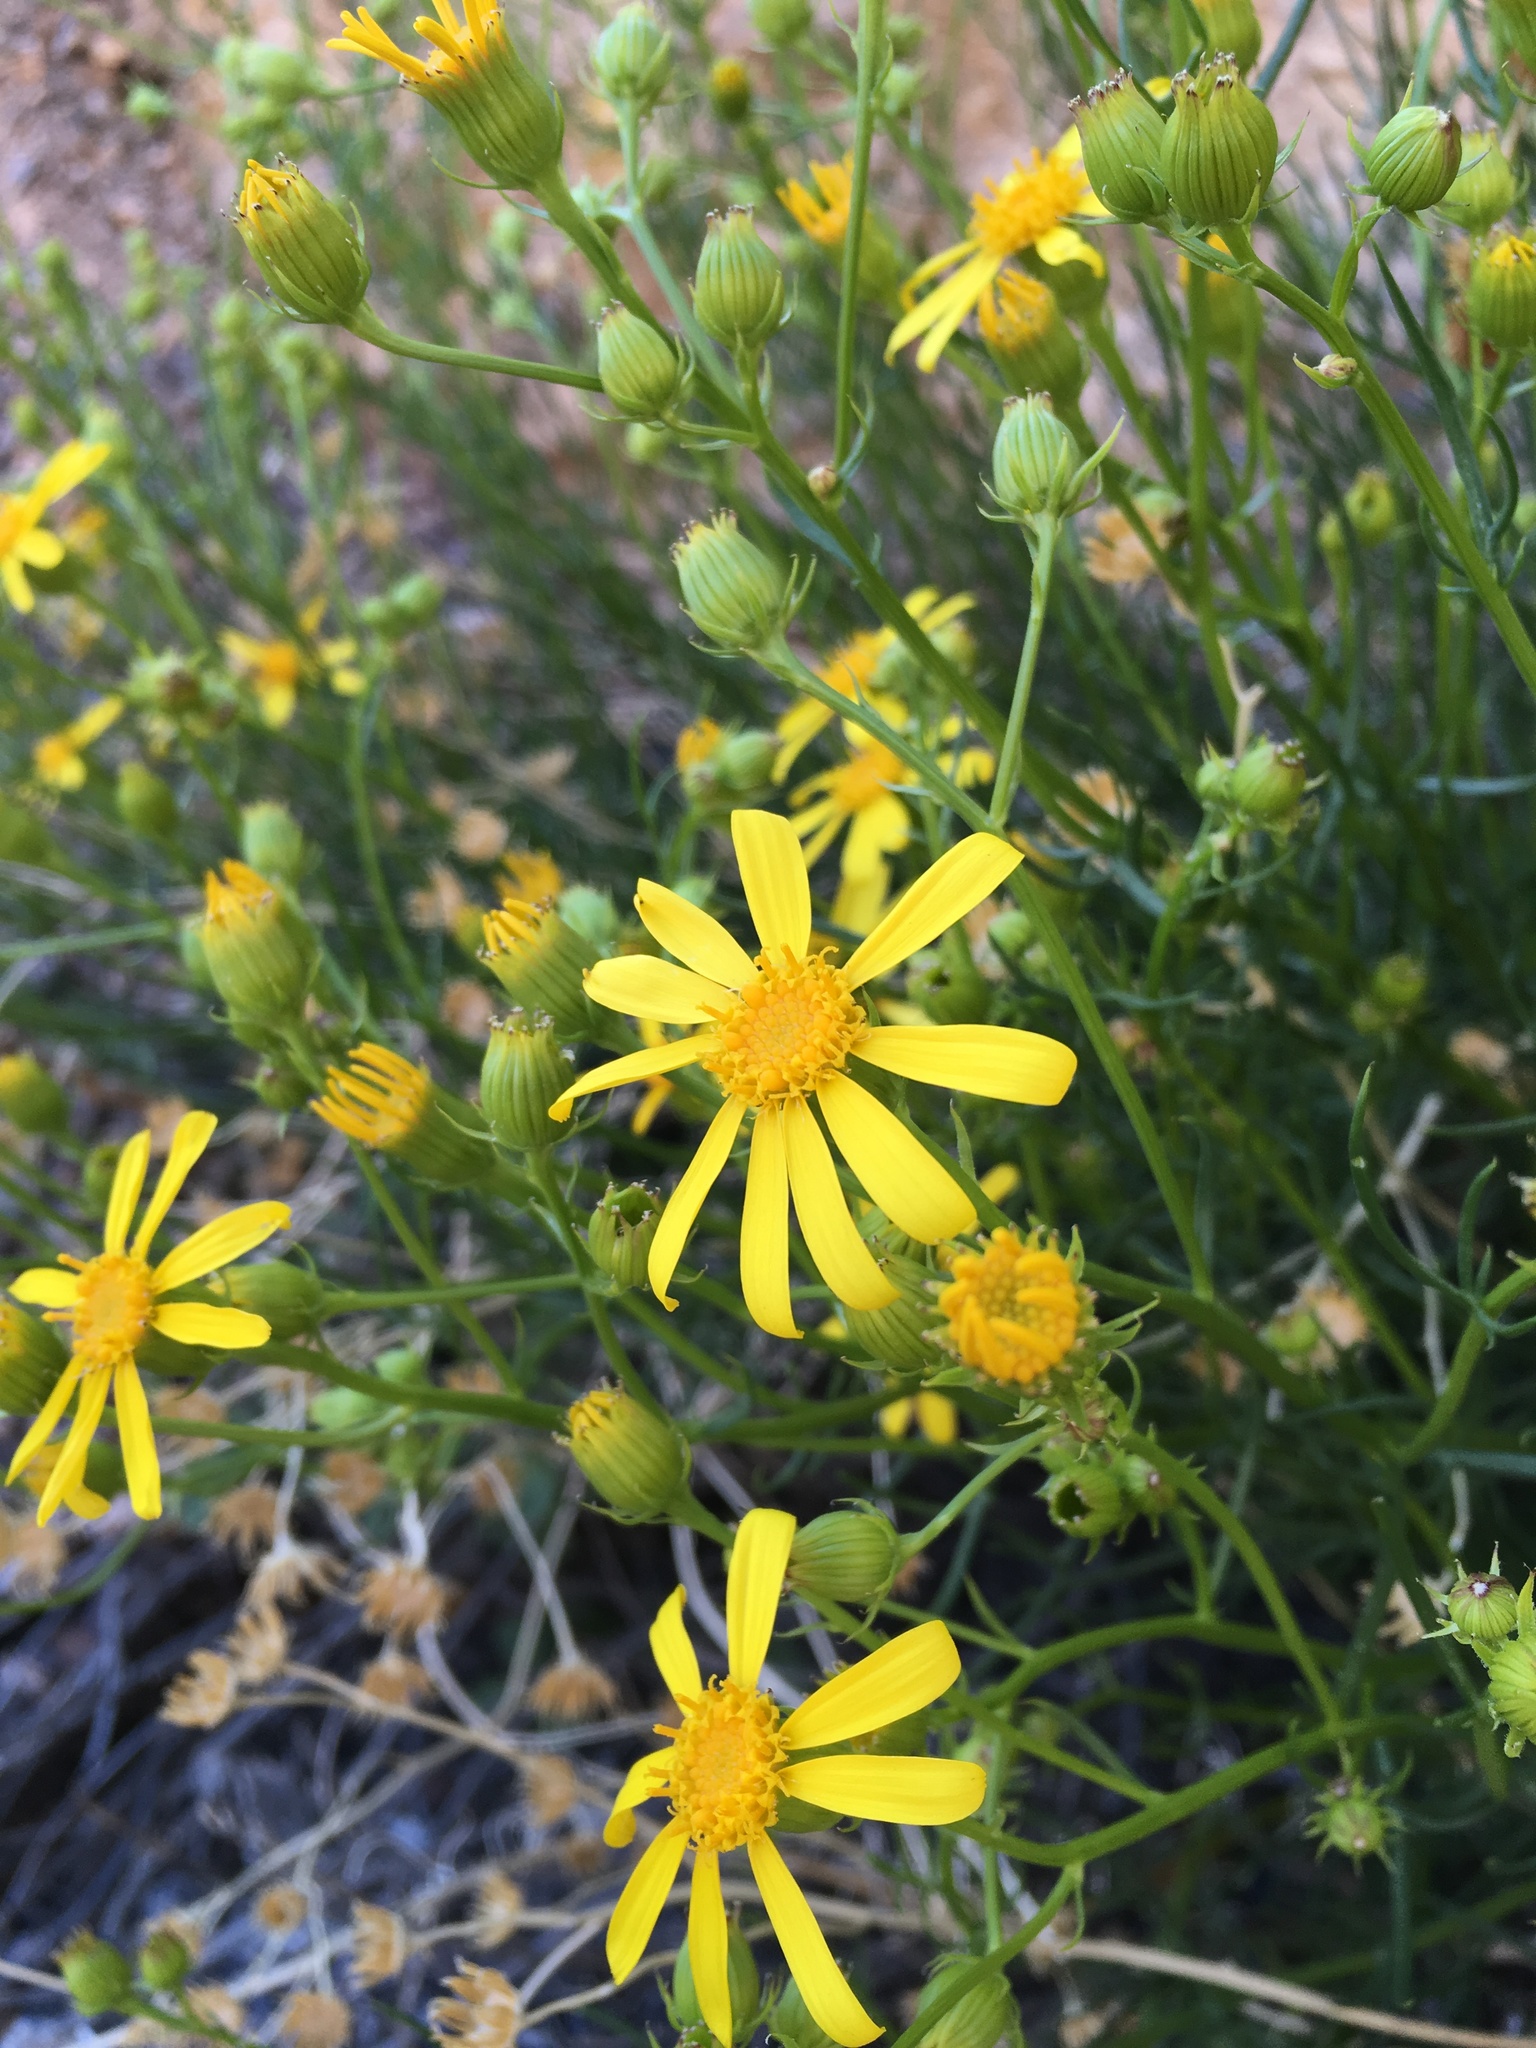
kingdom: Plantae
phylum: Tracheophyta
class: Magnoliopsida
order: Asterales
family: Asteraceae
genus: Senecio
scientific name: Senecio flaccidus
